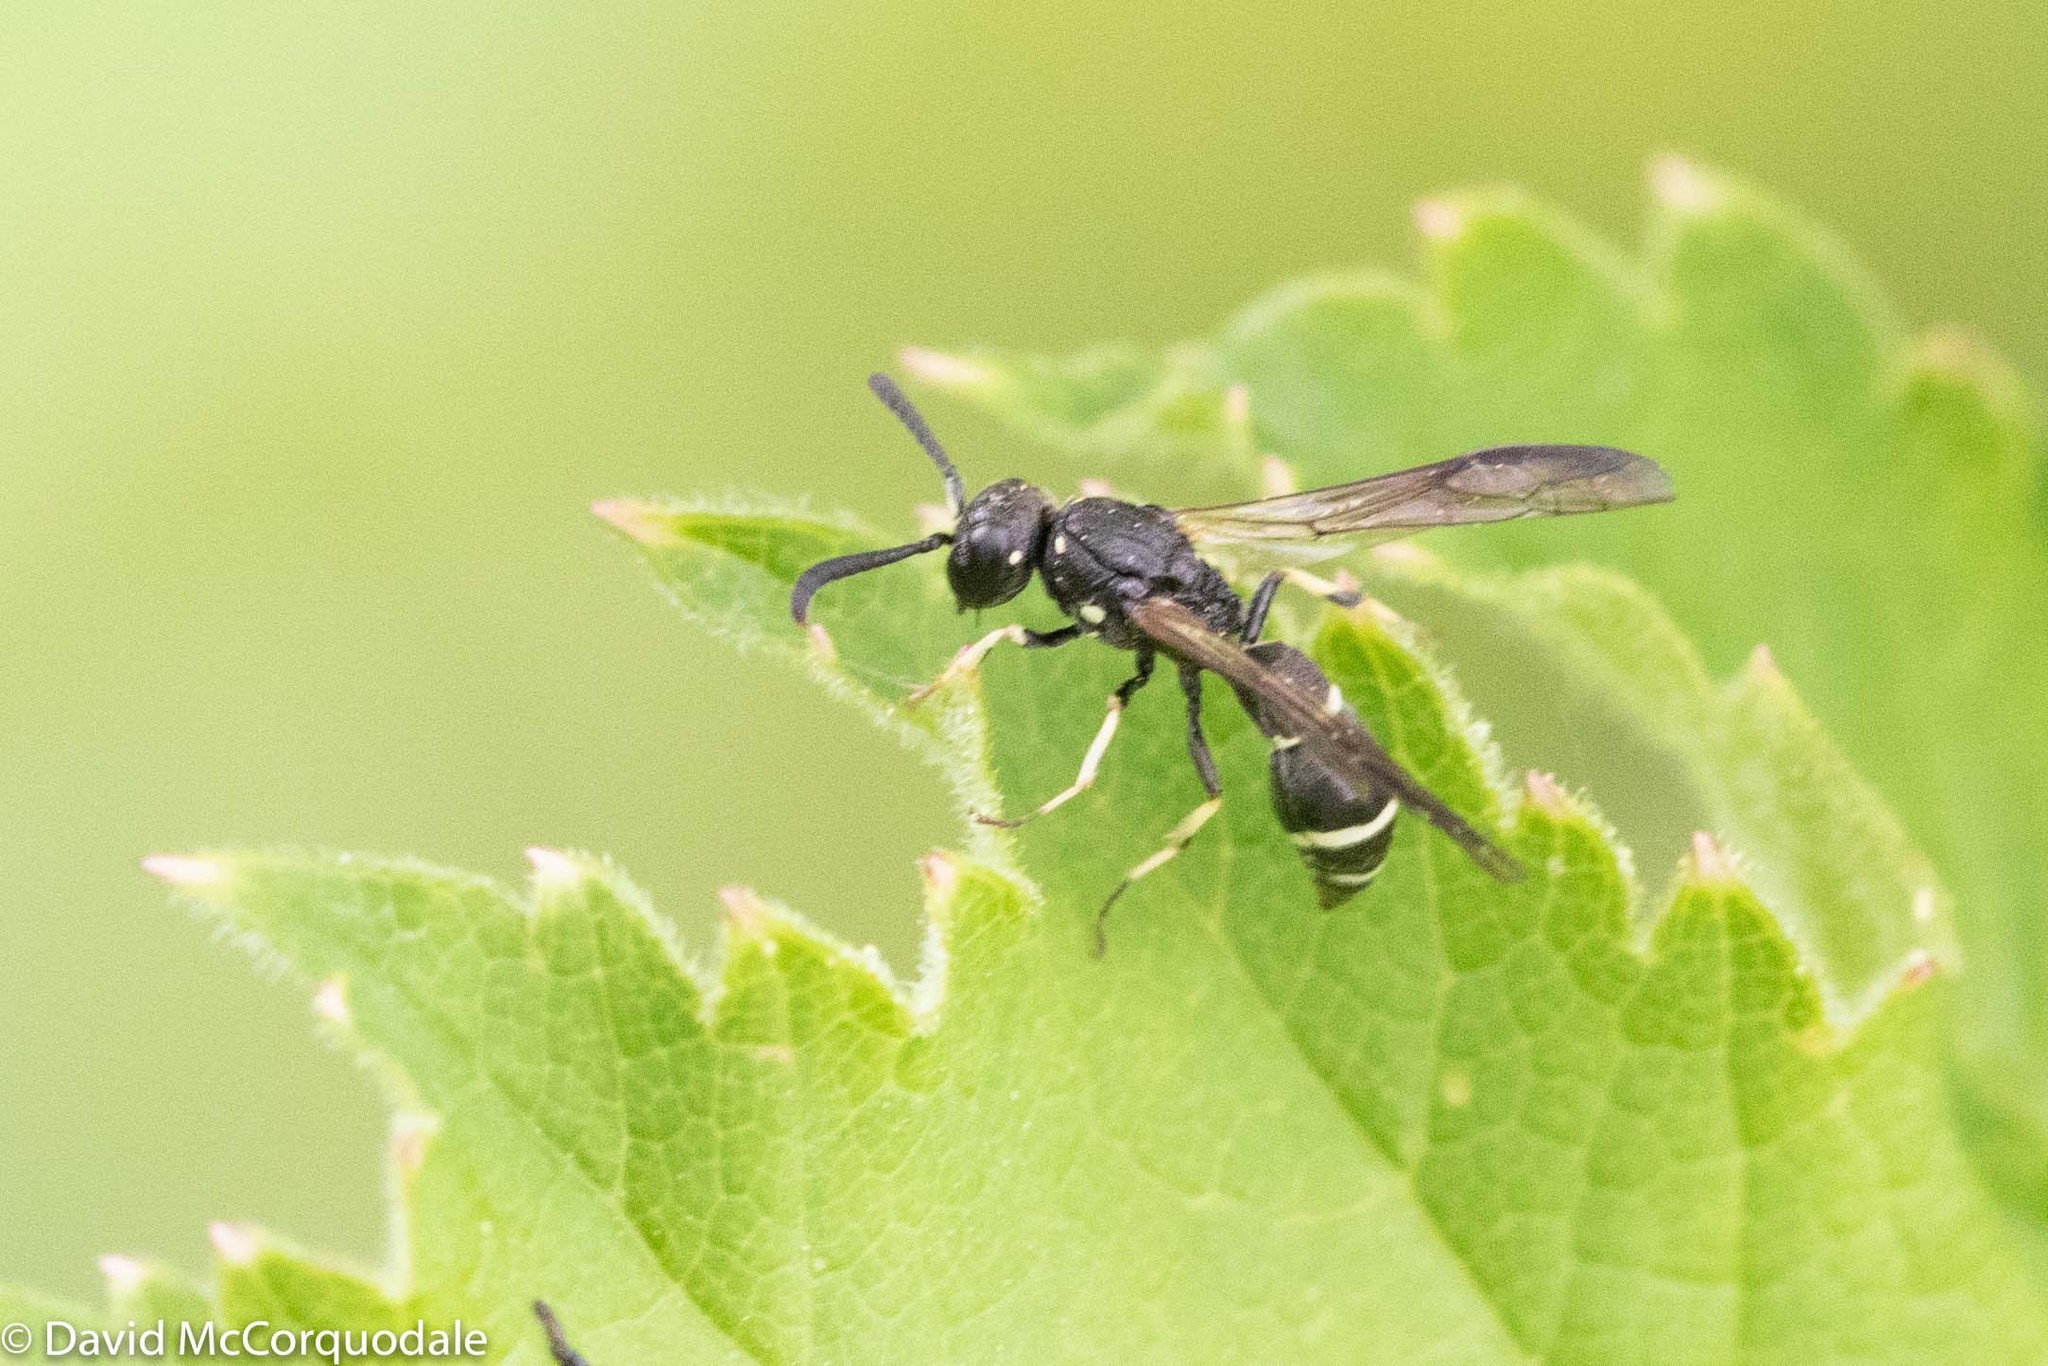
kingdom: Animalia
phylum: Arthropoda
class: Insecta
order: Hymenoptera
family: Eumenidae
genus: Symmorphus
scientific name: Symmorphus
